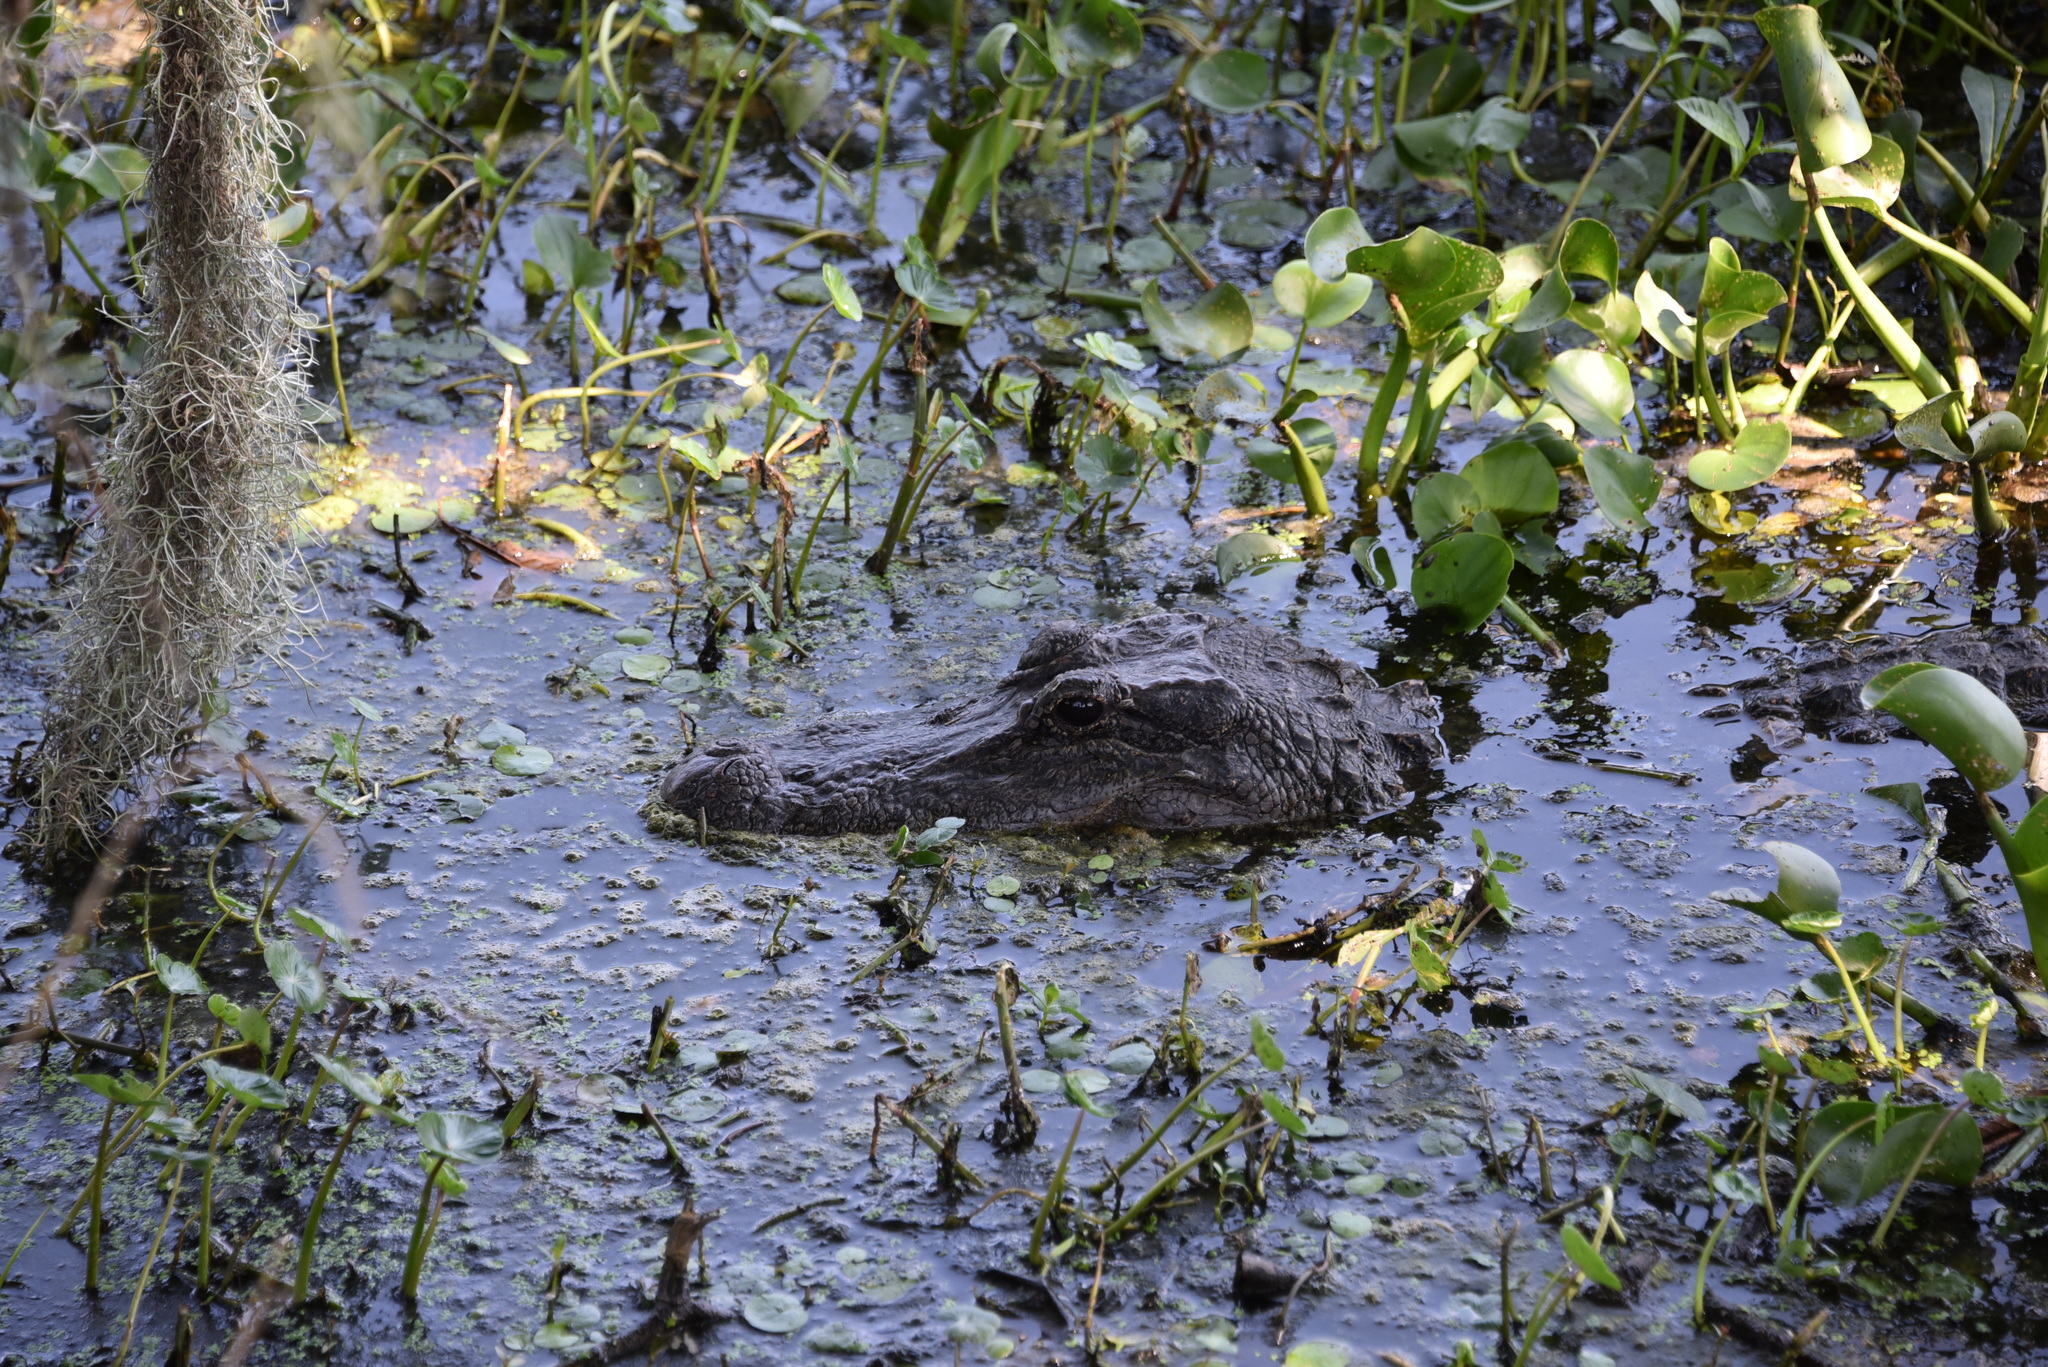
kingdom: Animalia
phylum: Chordata
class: Crocodylia
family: Alligatoridae
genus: Alligator
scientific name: Alligator mississippiensis
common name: American alligator
